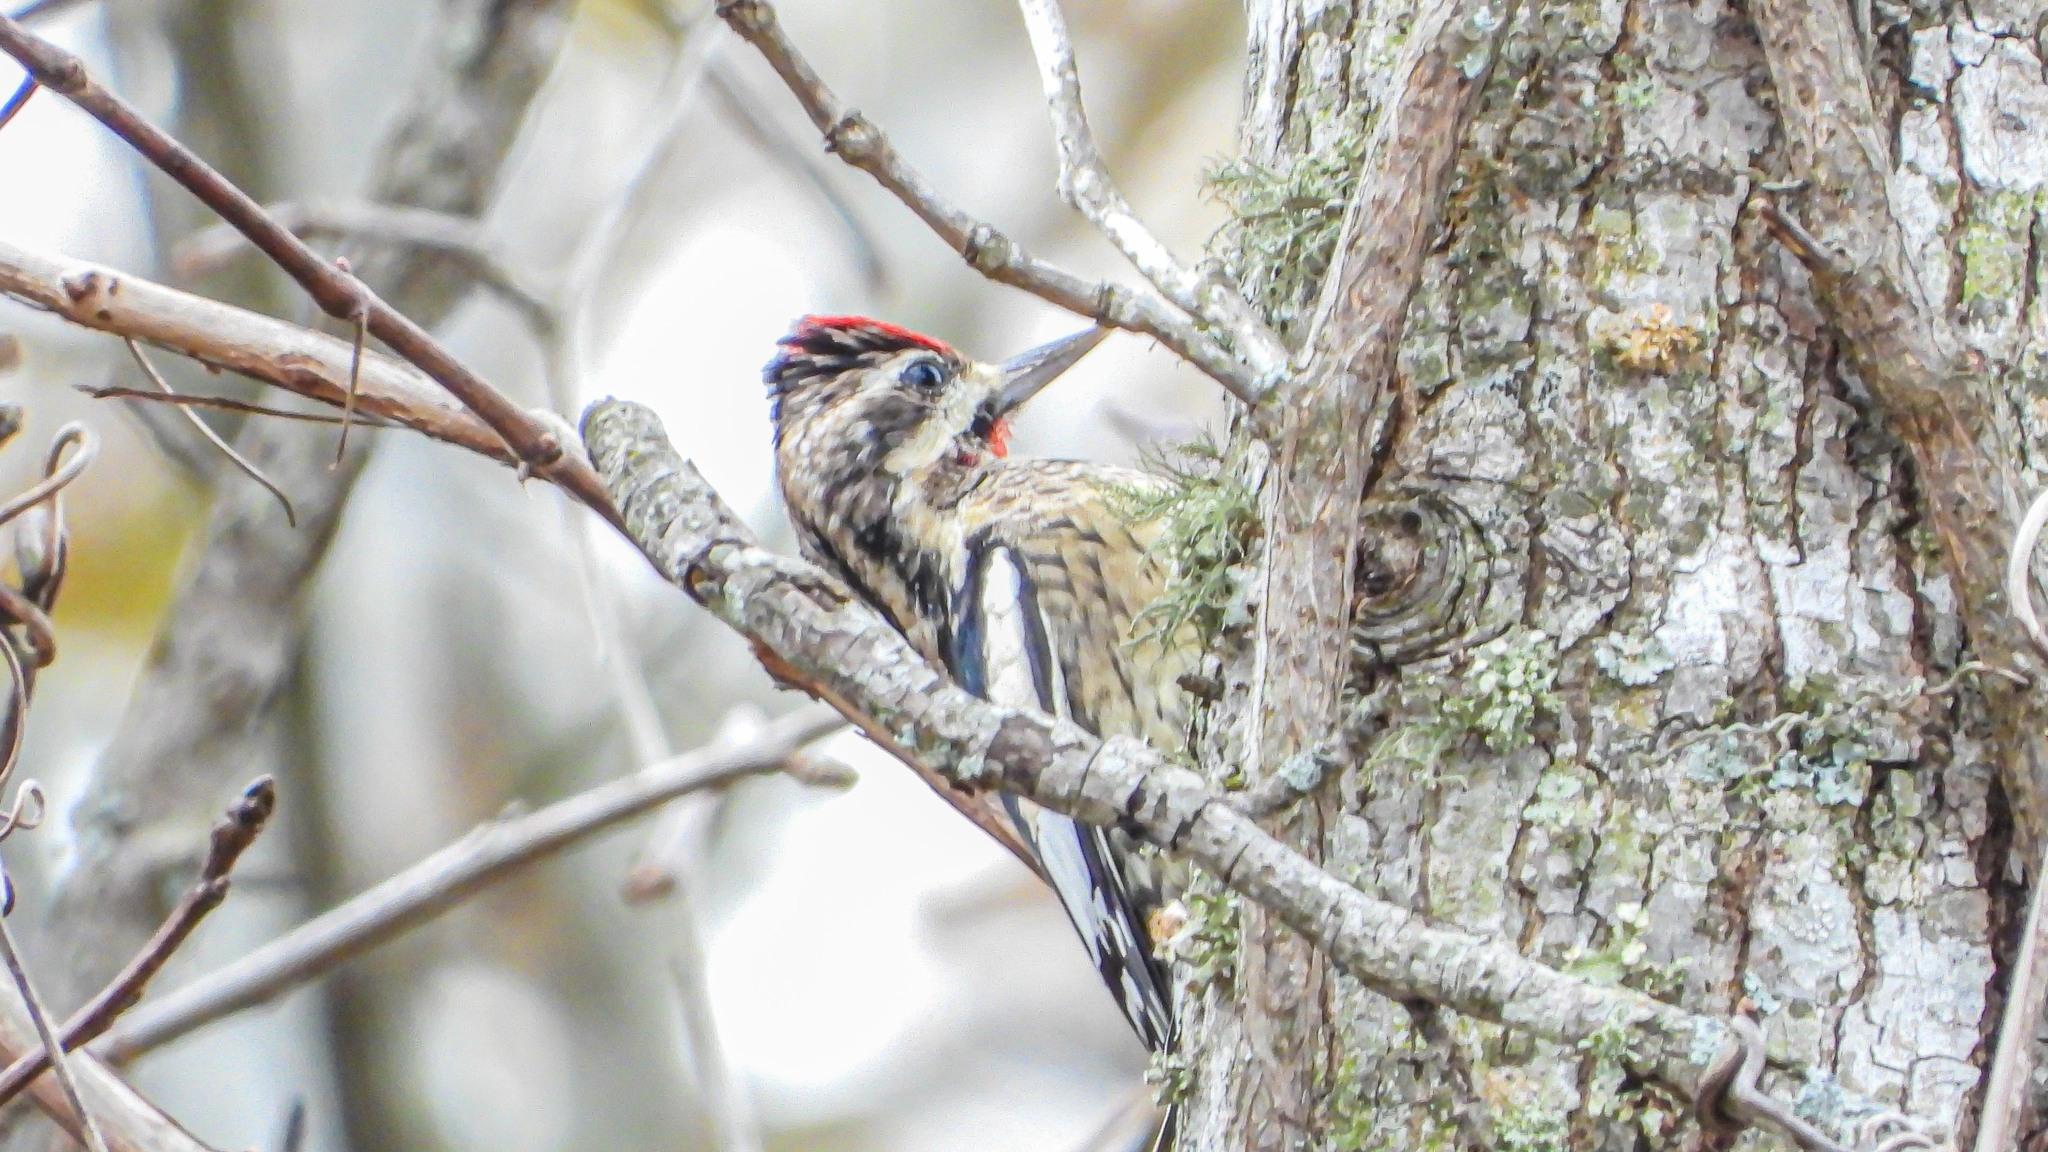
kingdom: Animalia
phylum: Chordata
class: Aves
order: Piciformes
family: Picidae
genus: Sphyrapicus
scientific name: Sphyrapicus varius
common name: Yellow-bellied sapsucker
